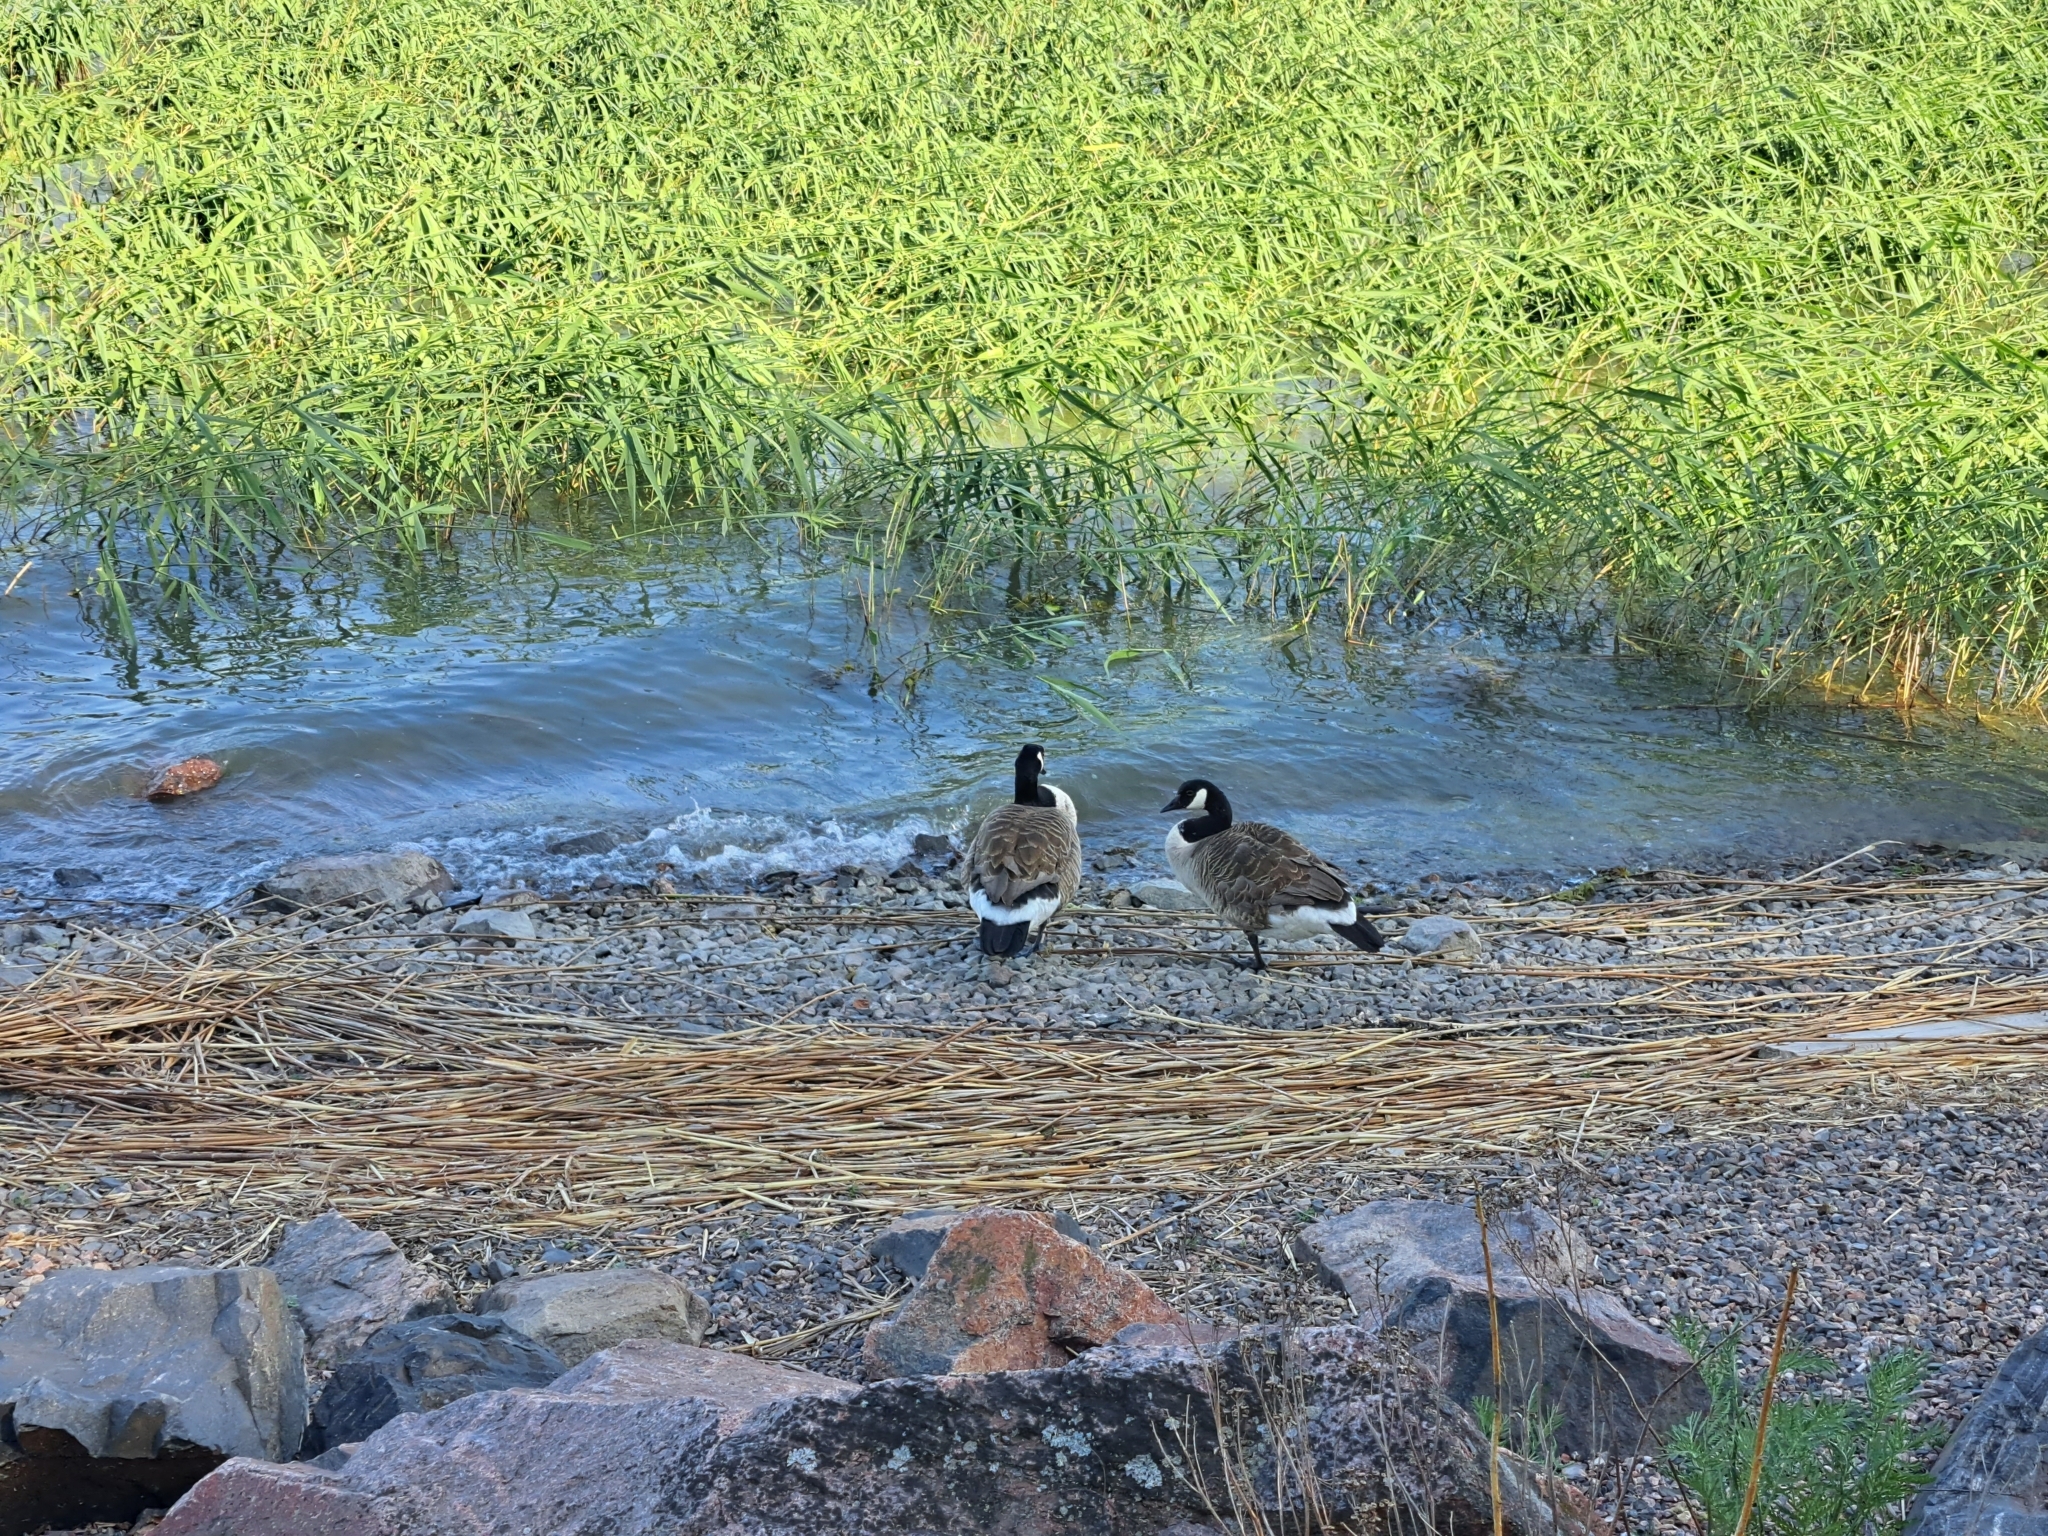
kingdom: Animalia
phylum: Chordata
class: Aves
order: Anseriformes
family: Anatidae
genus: Branta
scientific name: Branta canadensis
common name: Canada goose
